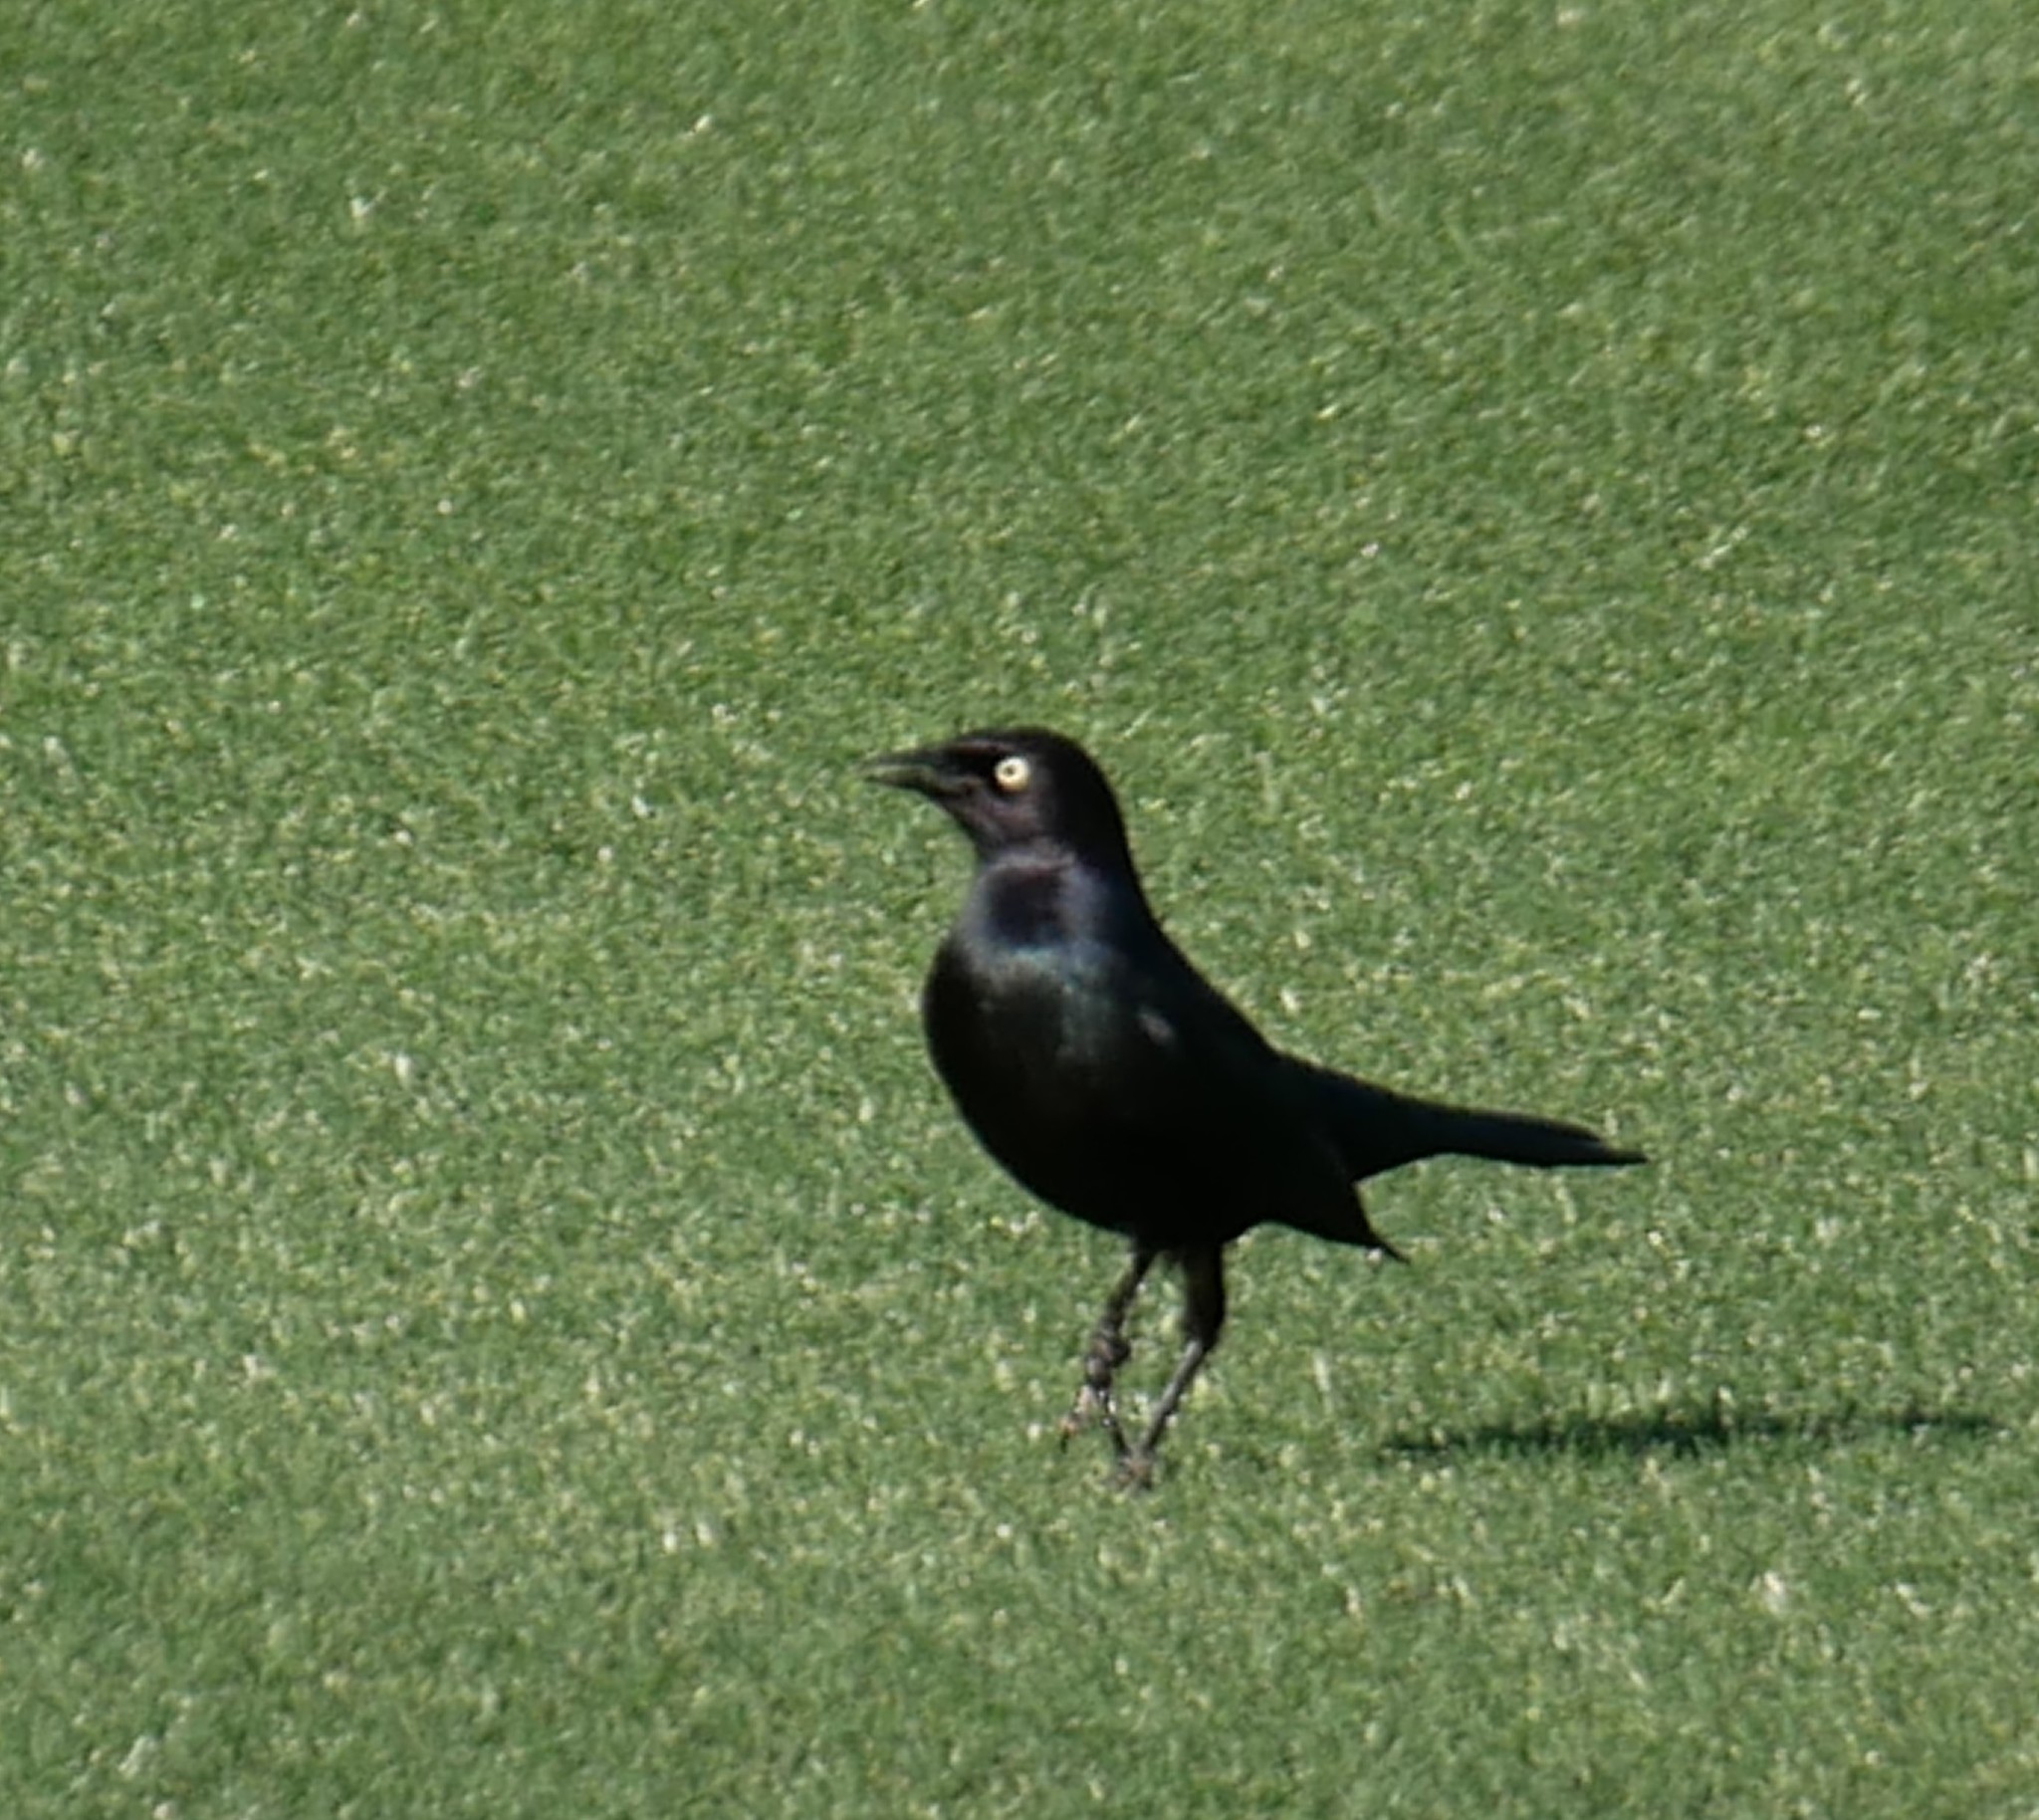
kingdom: Animalia
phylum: Chordata
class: Aves
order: Passeriformes
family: Icteridae
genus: Euphagus
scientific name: Euphagus cyanocephalus
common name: Brewer's blackbird
